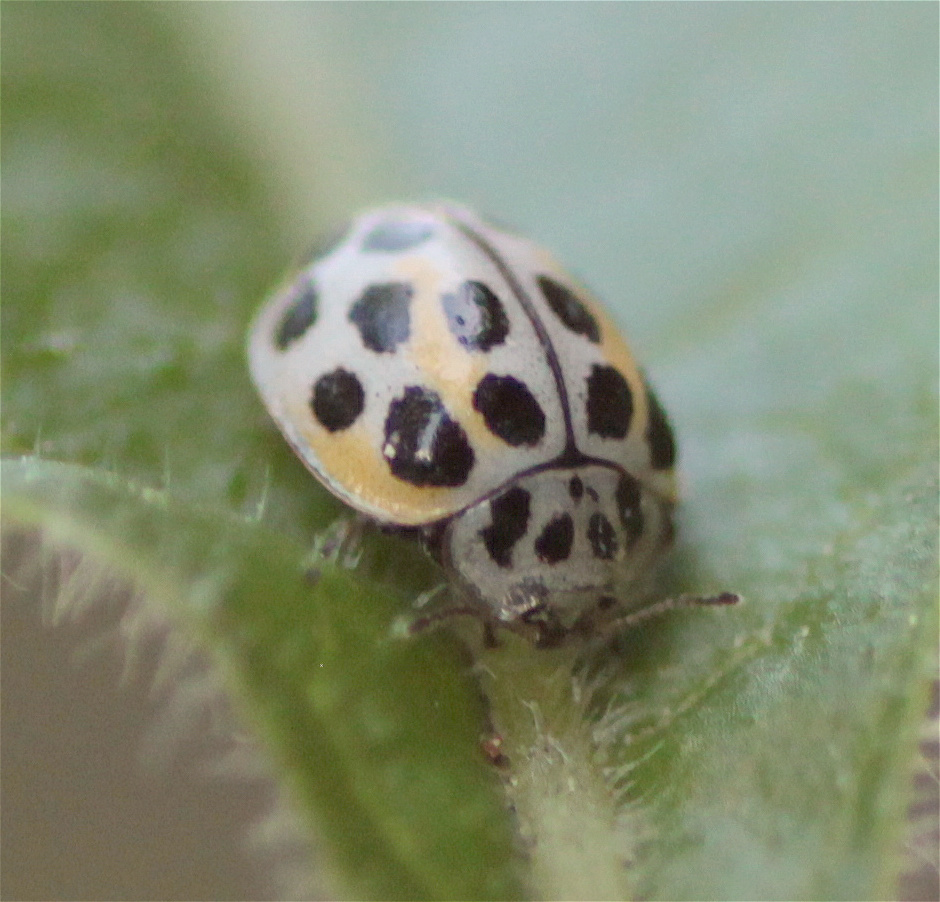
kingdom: Animalia
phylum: Arthropoda
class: Insecta
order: Coleoptera
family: Coccinellidae
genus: Psyllobora
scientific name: Psyllobora
